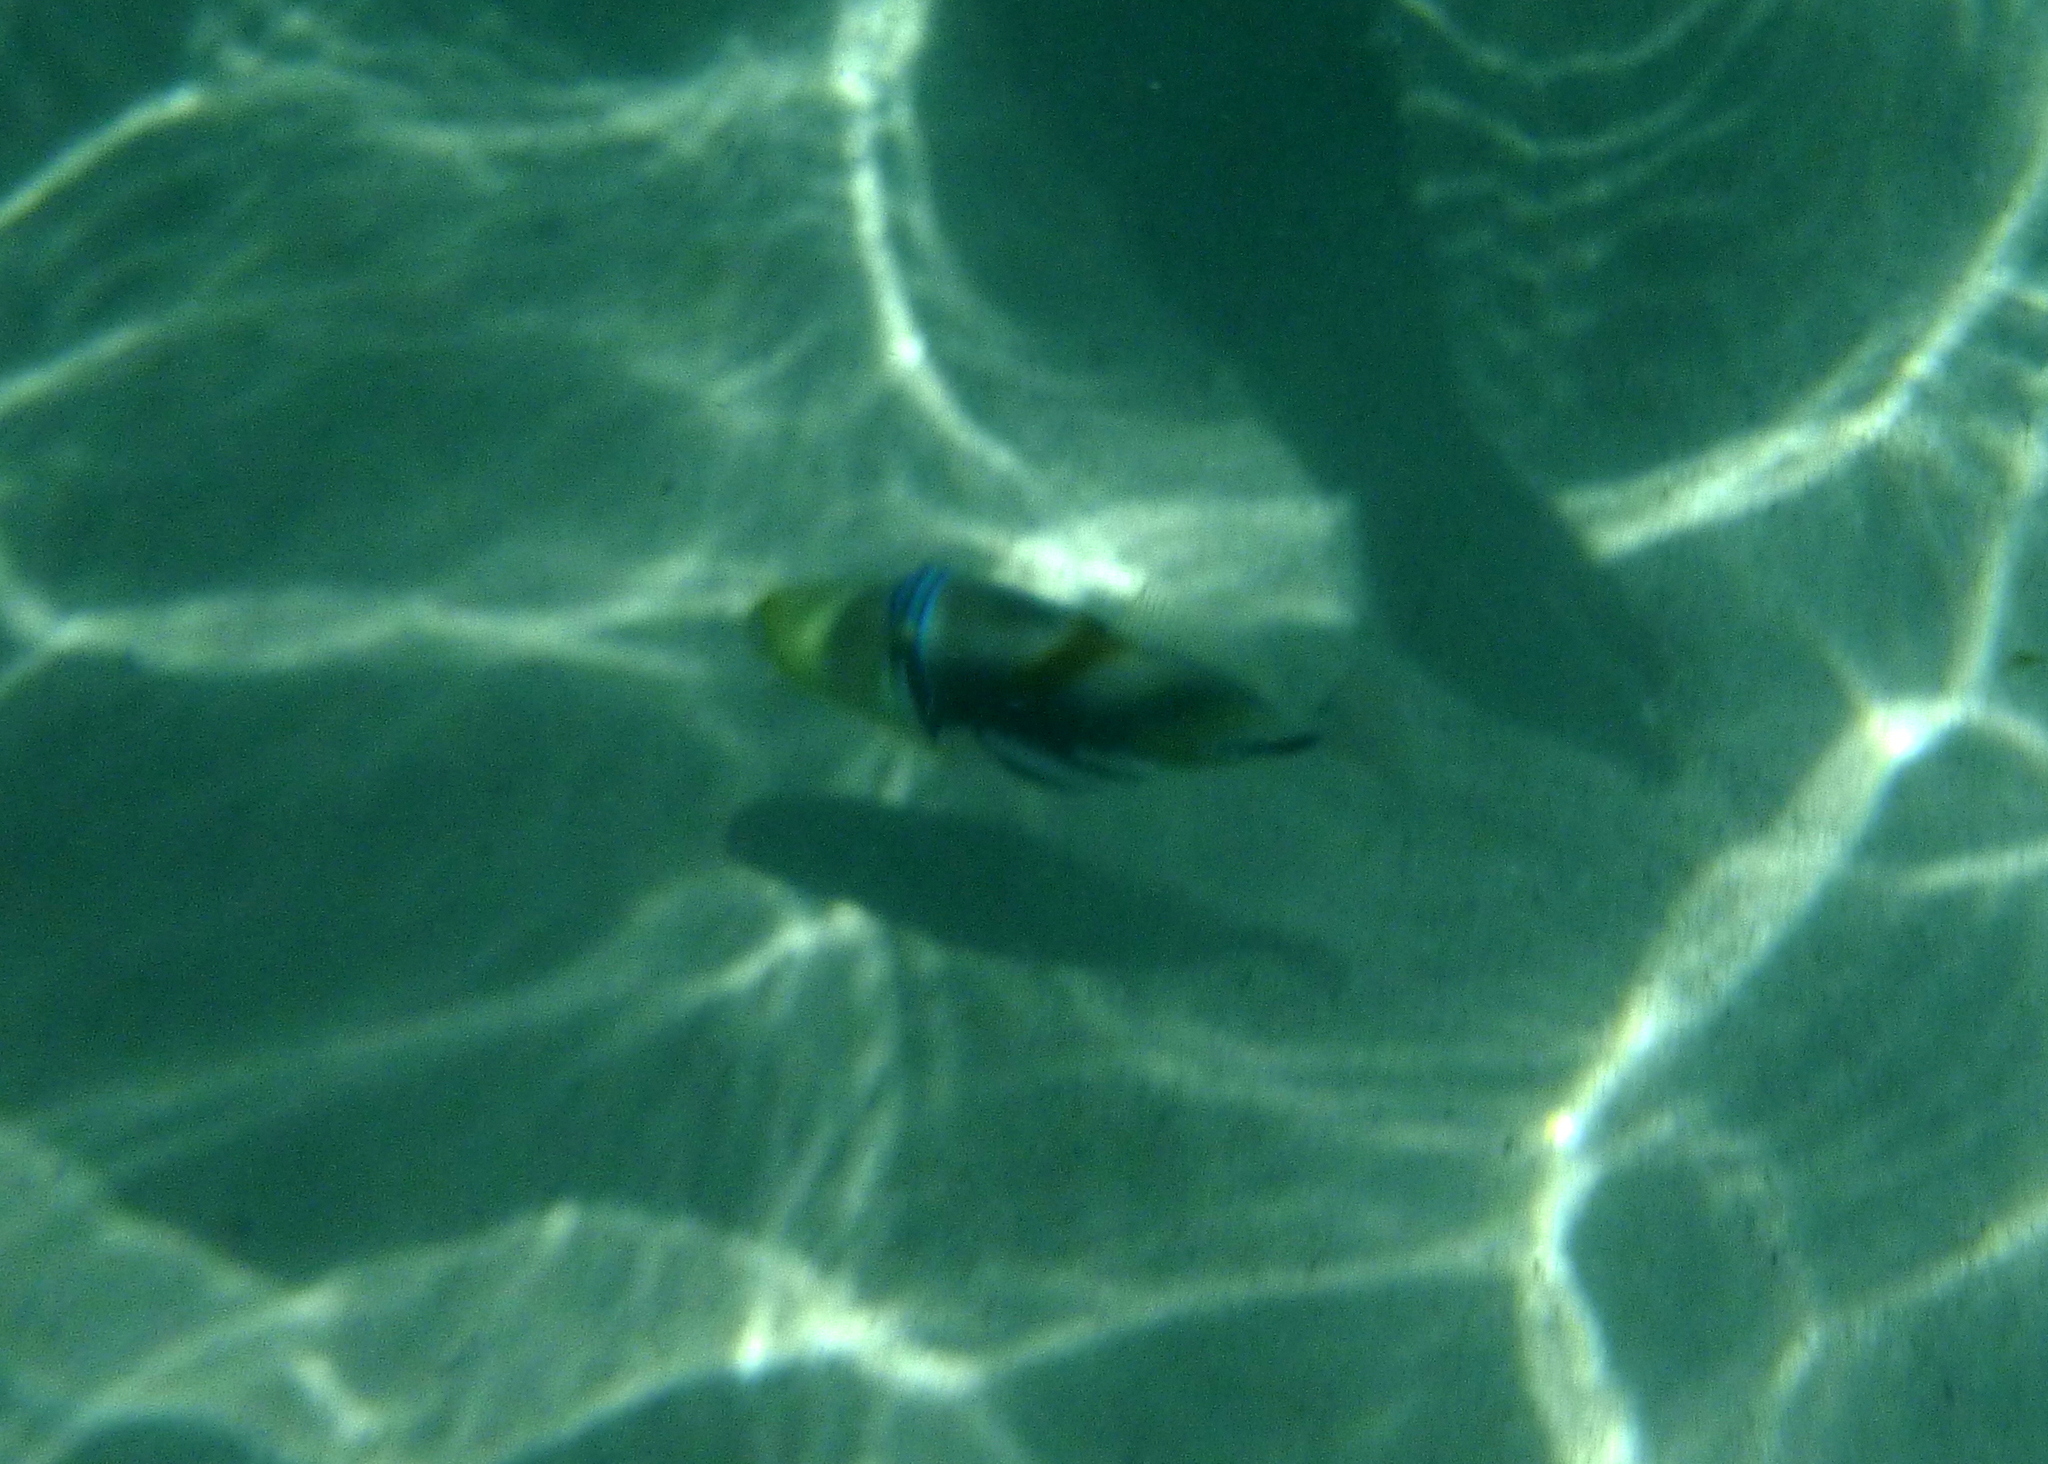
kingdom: Animalia
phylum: Chordata
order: Tetraodontiformes
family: Balistidae
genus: Rhinecanthus
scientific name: Rhinecanthus aculeatus
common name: White-banded triggerfish
